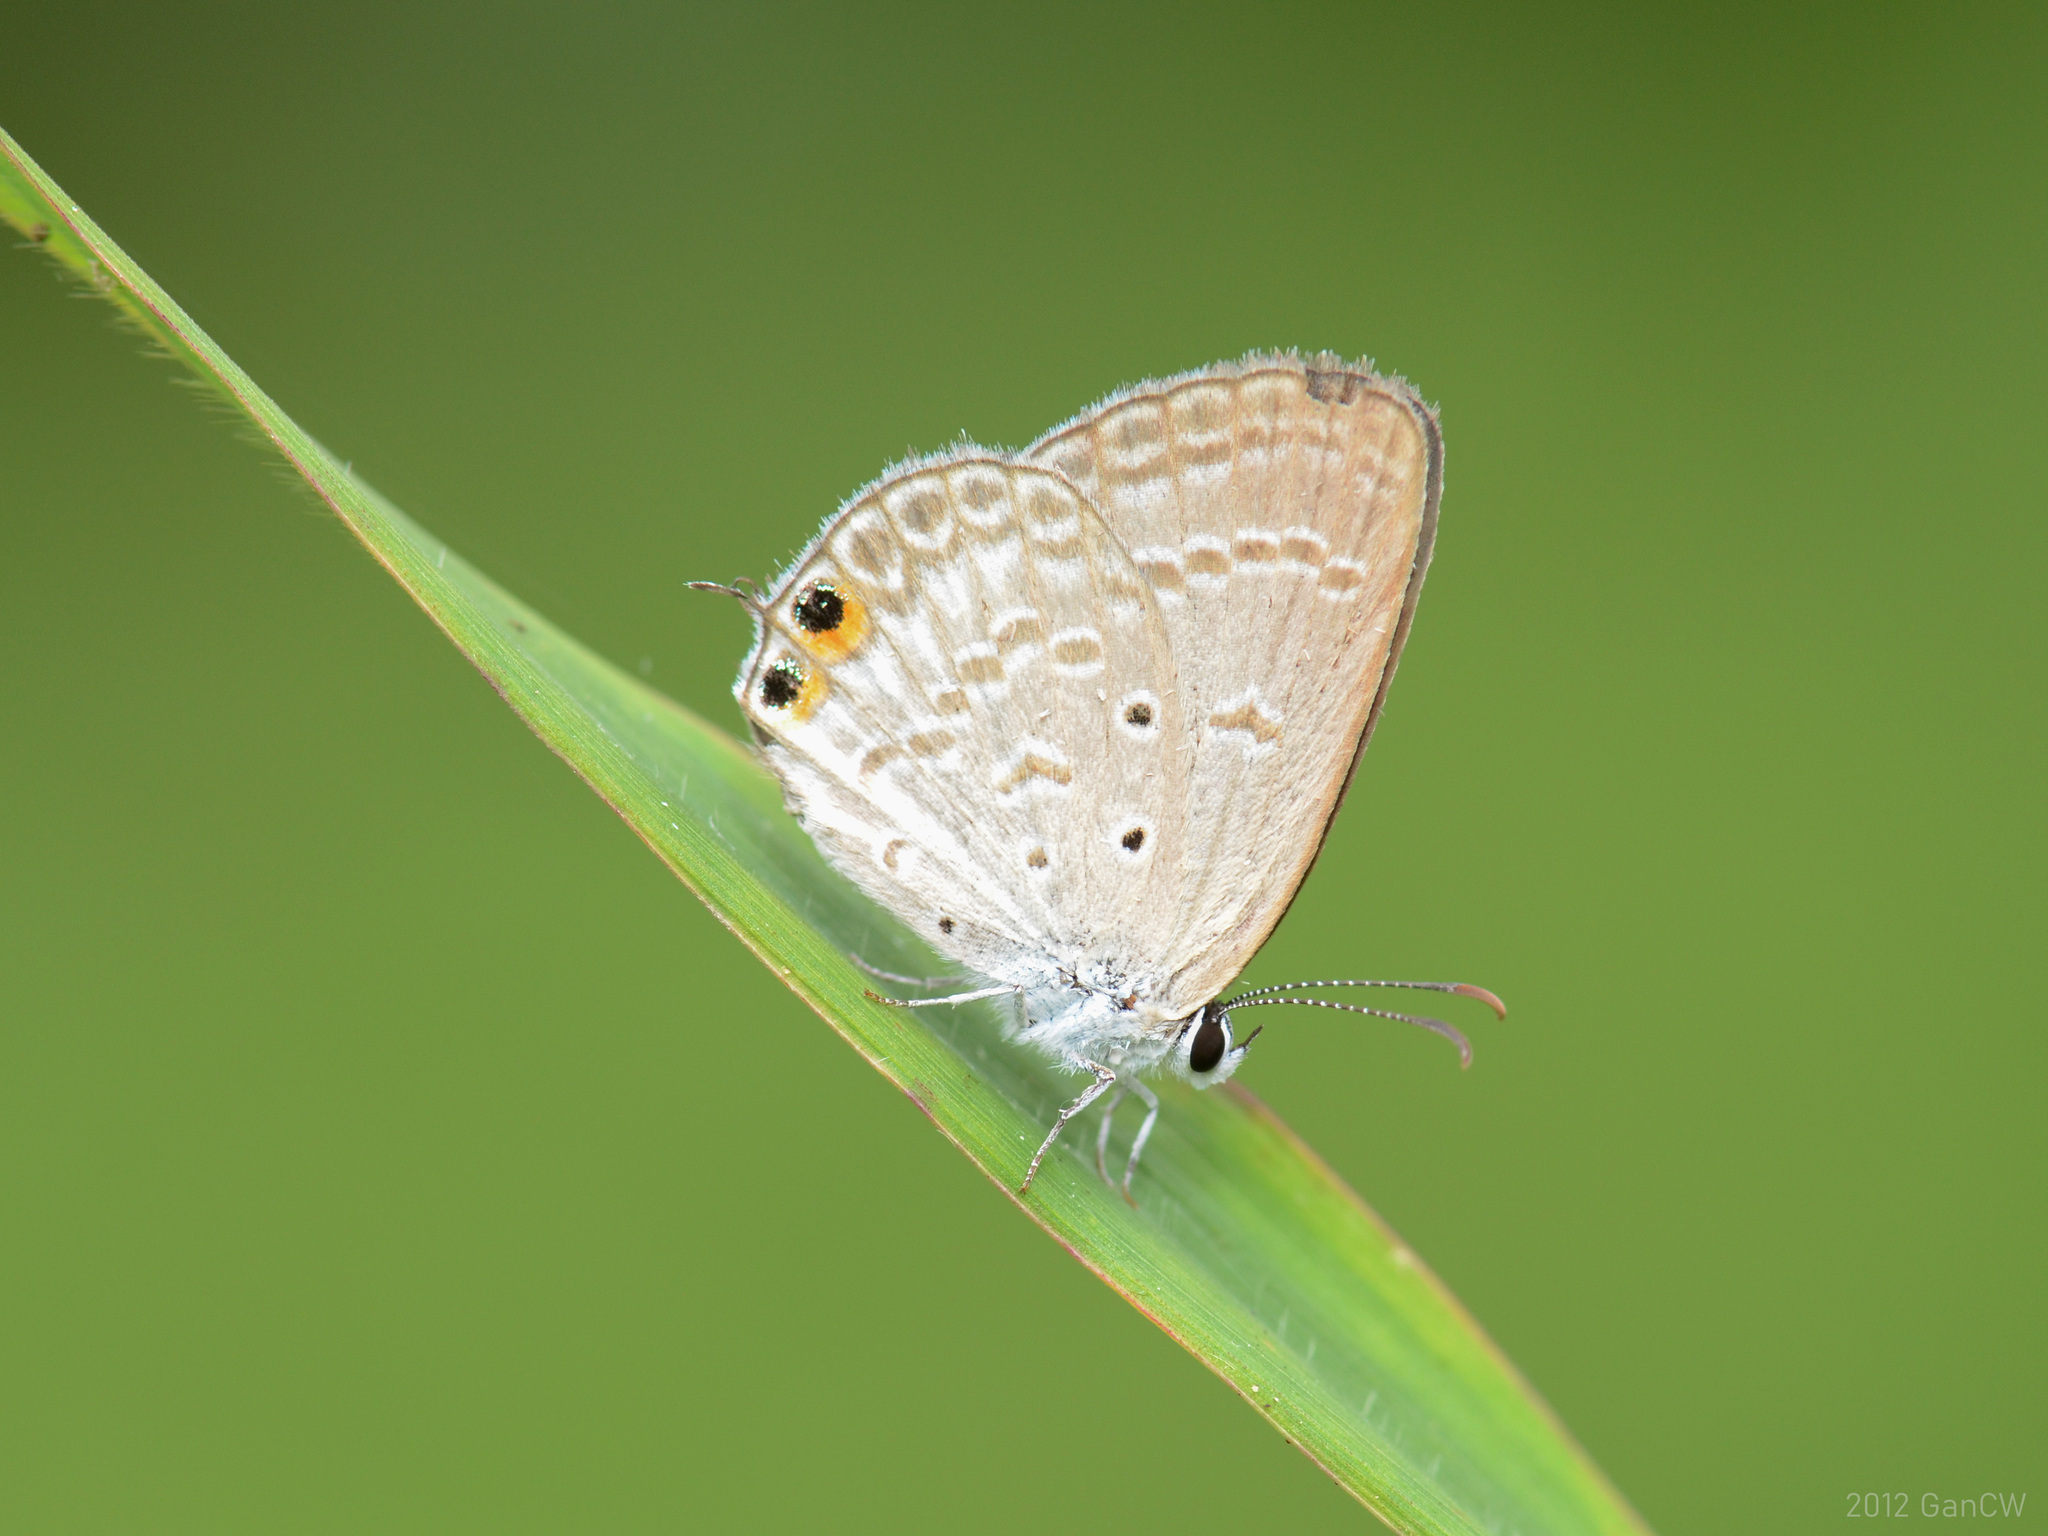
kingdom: Animalia
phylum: Arthropoda
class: Insecta
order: Lepidoptera
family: Lycaenidae
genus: Euchrysops
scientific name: Euchrysops cnejus
